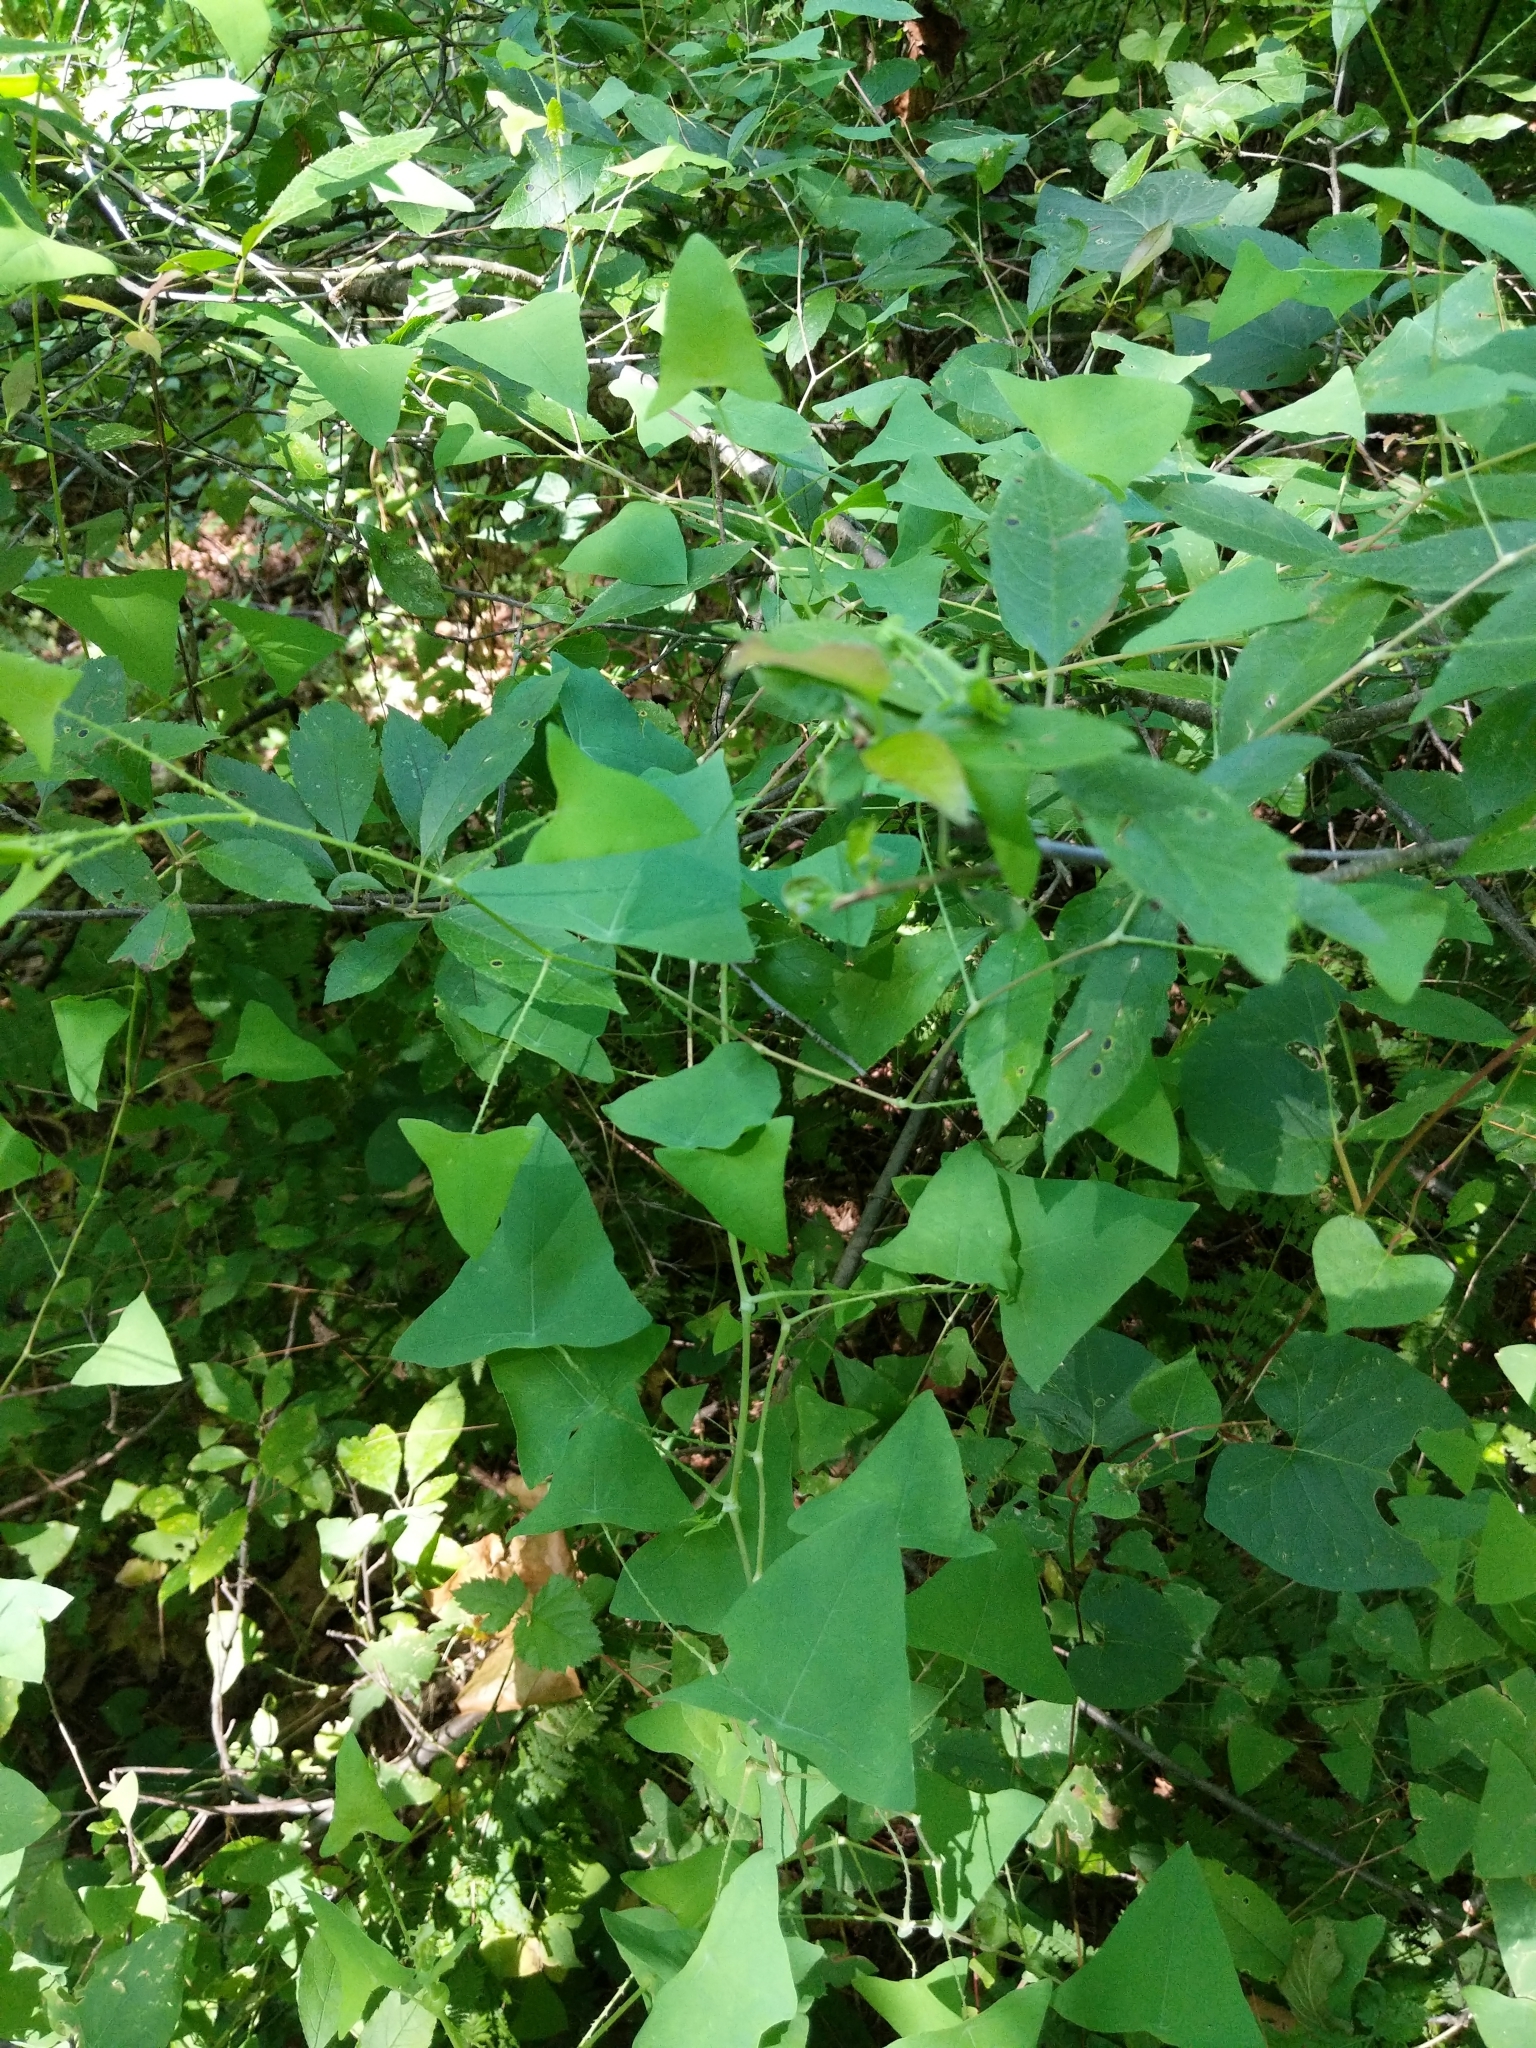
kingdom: Plantae
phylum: Tracheophyta
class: Magnoliopsida
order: Caryophyllales
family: Polygonaceae
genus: Persicaria
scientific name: Persicaria perfoliata
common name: Asiatic tearthumb
